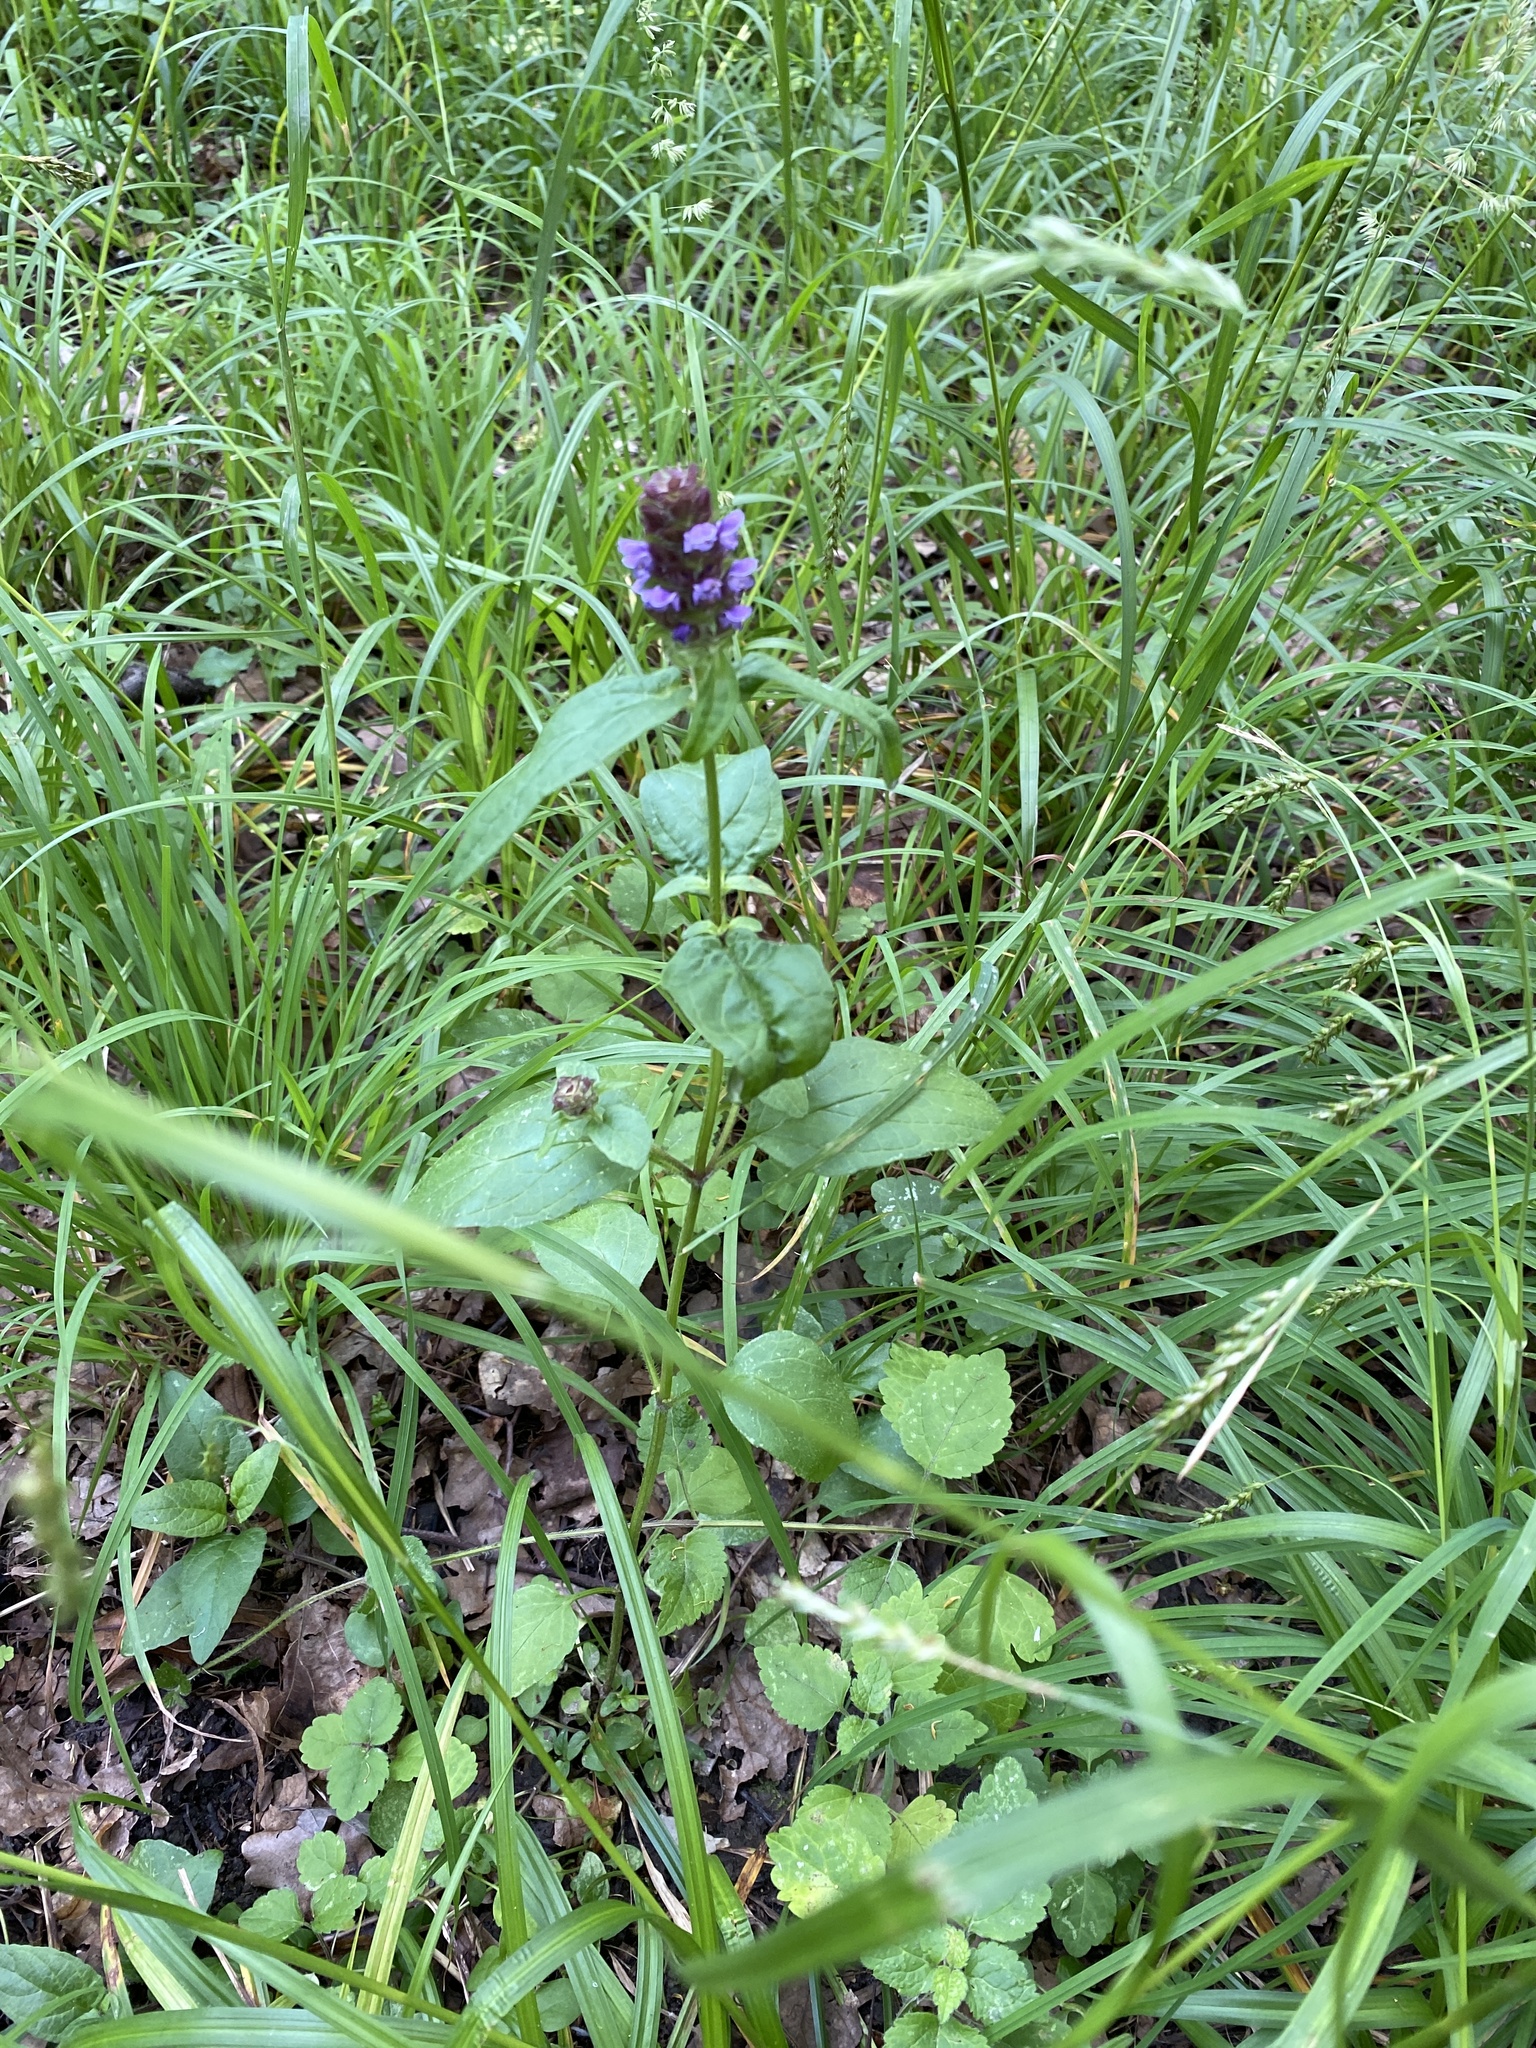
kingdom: Plantae
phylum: Tracheophyta
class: Magnoliopsida
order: Lamiales
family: Lamiaceae
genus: Prunella
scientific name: Prunella vulgaris
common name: Heal-all
